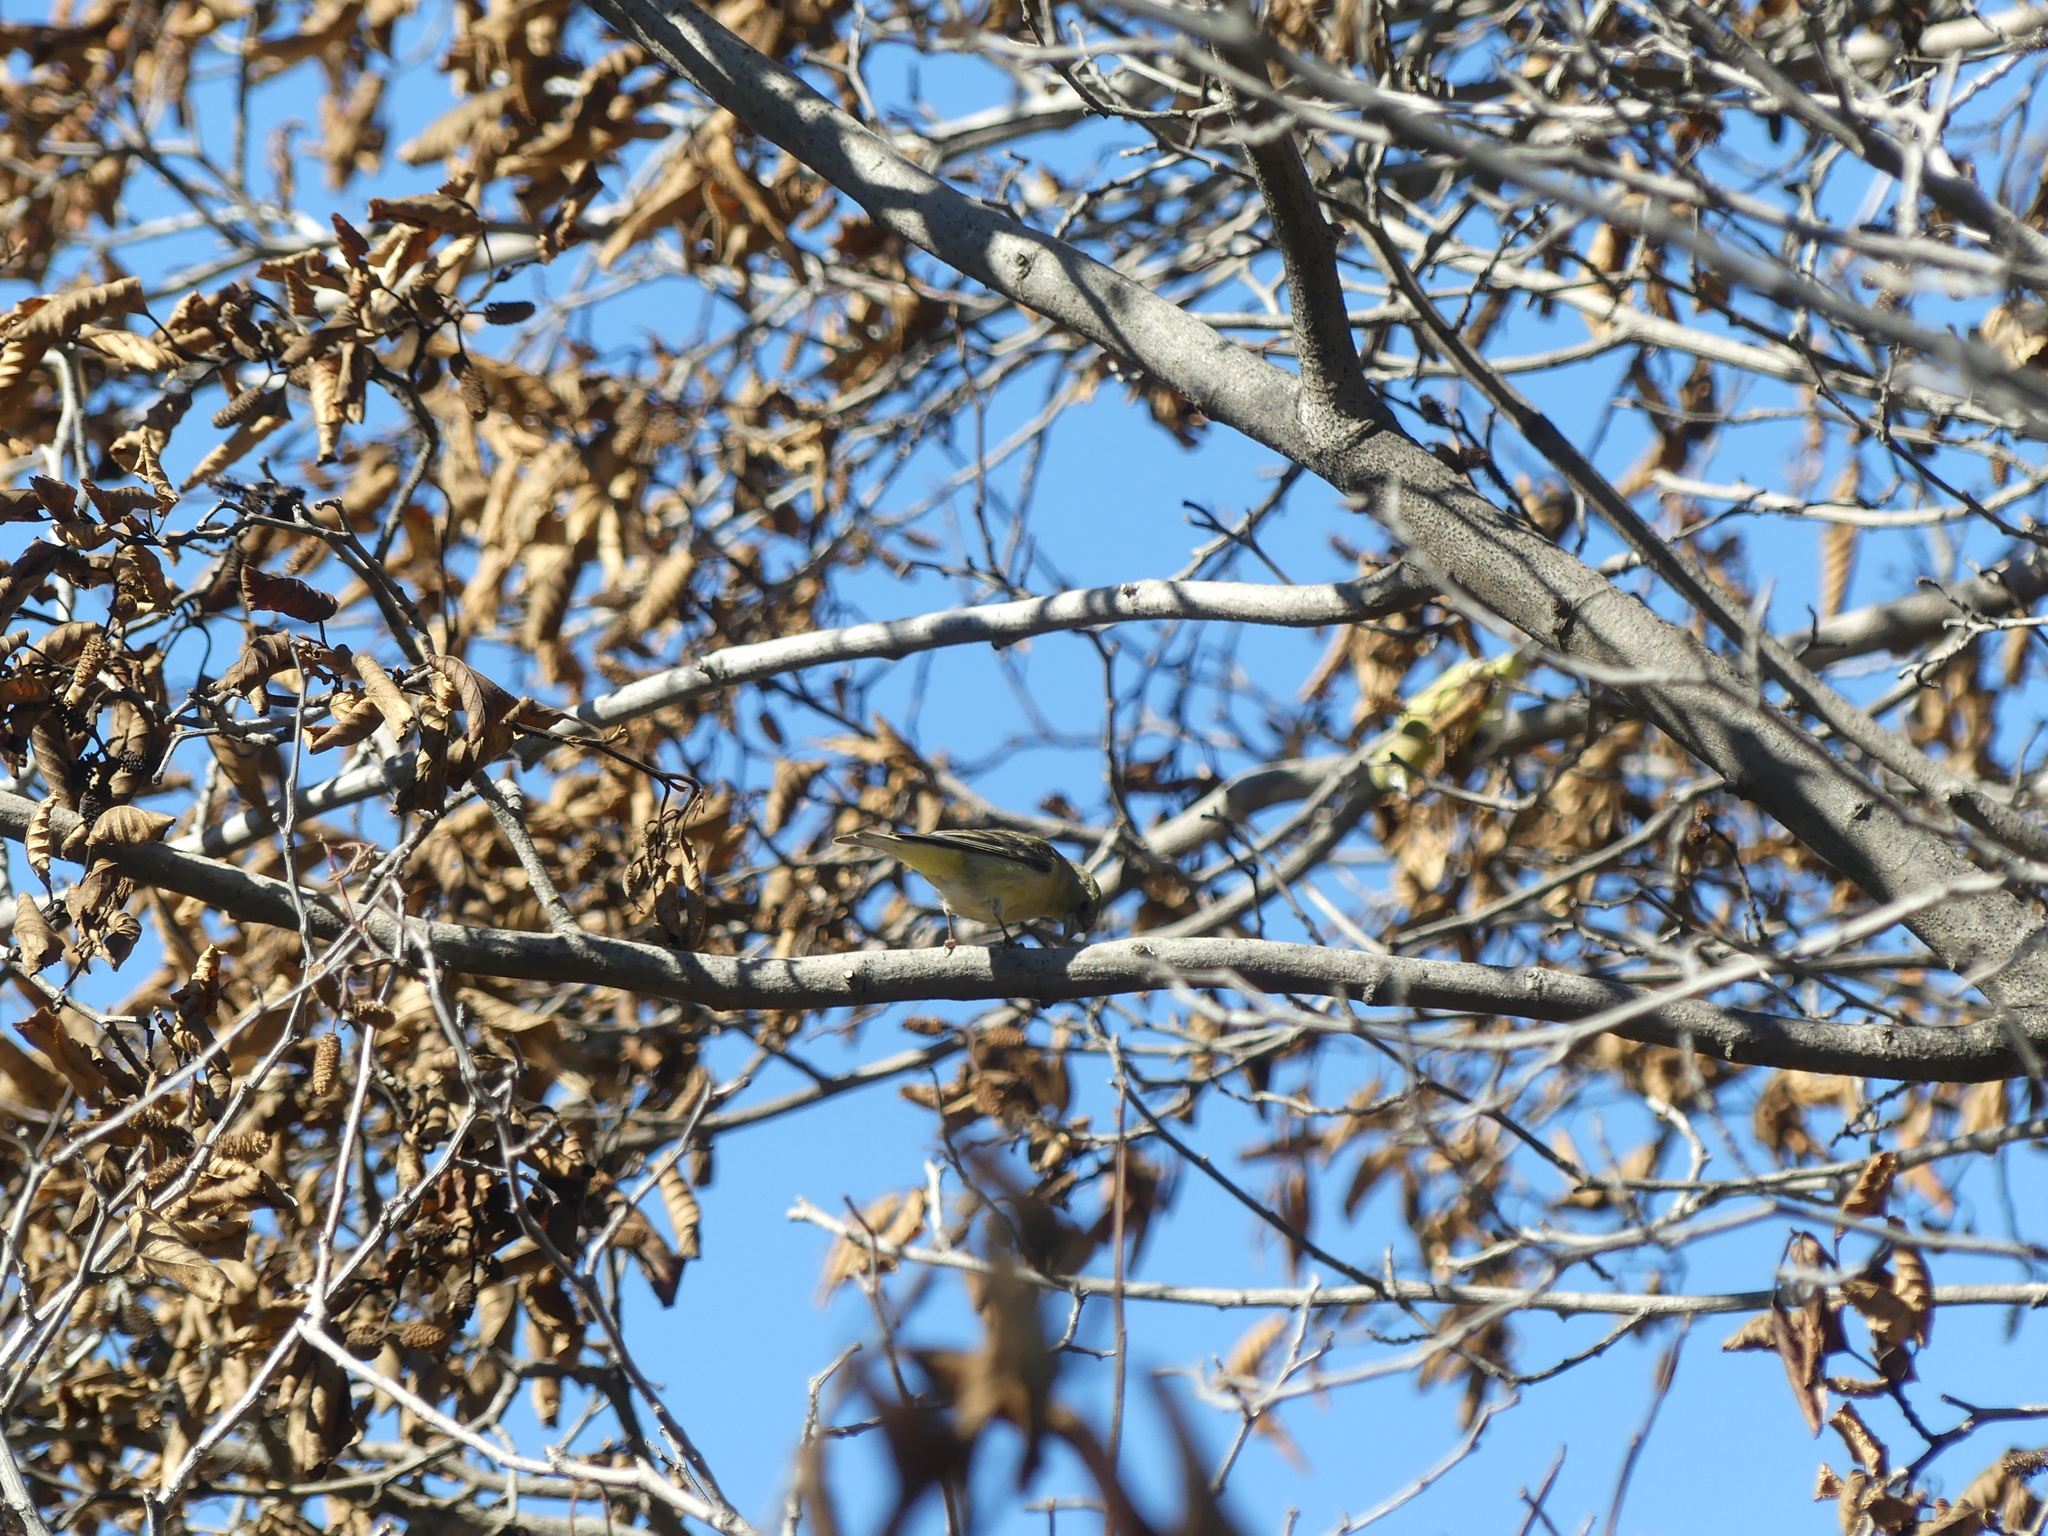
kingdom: Animalia
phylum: Chordata
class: Aves
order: Passeriformes
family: Fringillidae
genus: Spinus
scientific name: Spinus psaltria
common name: Lesser goldfinch
